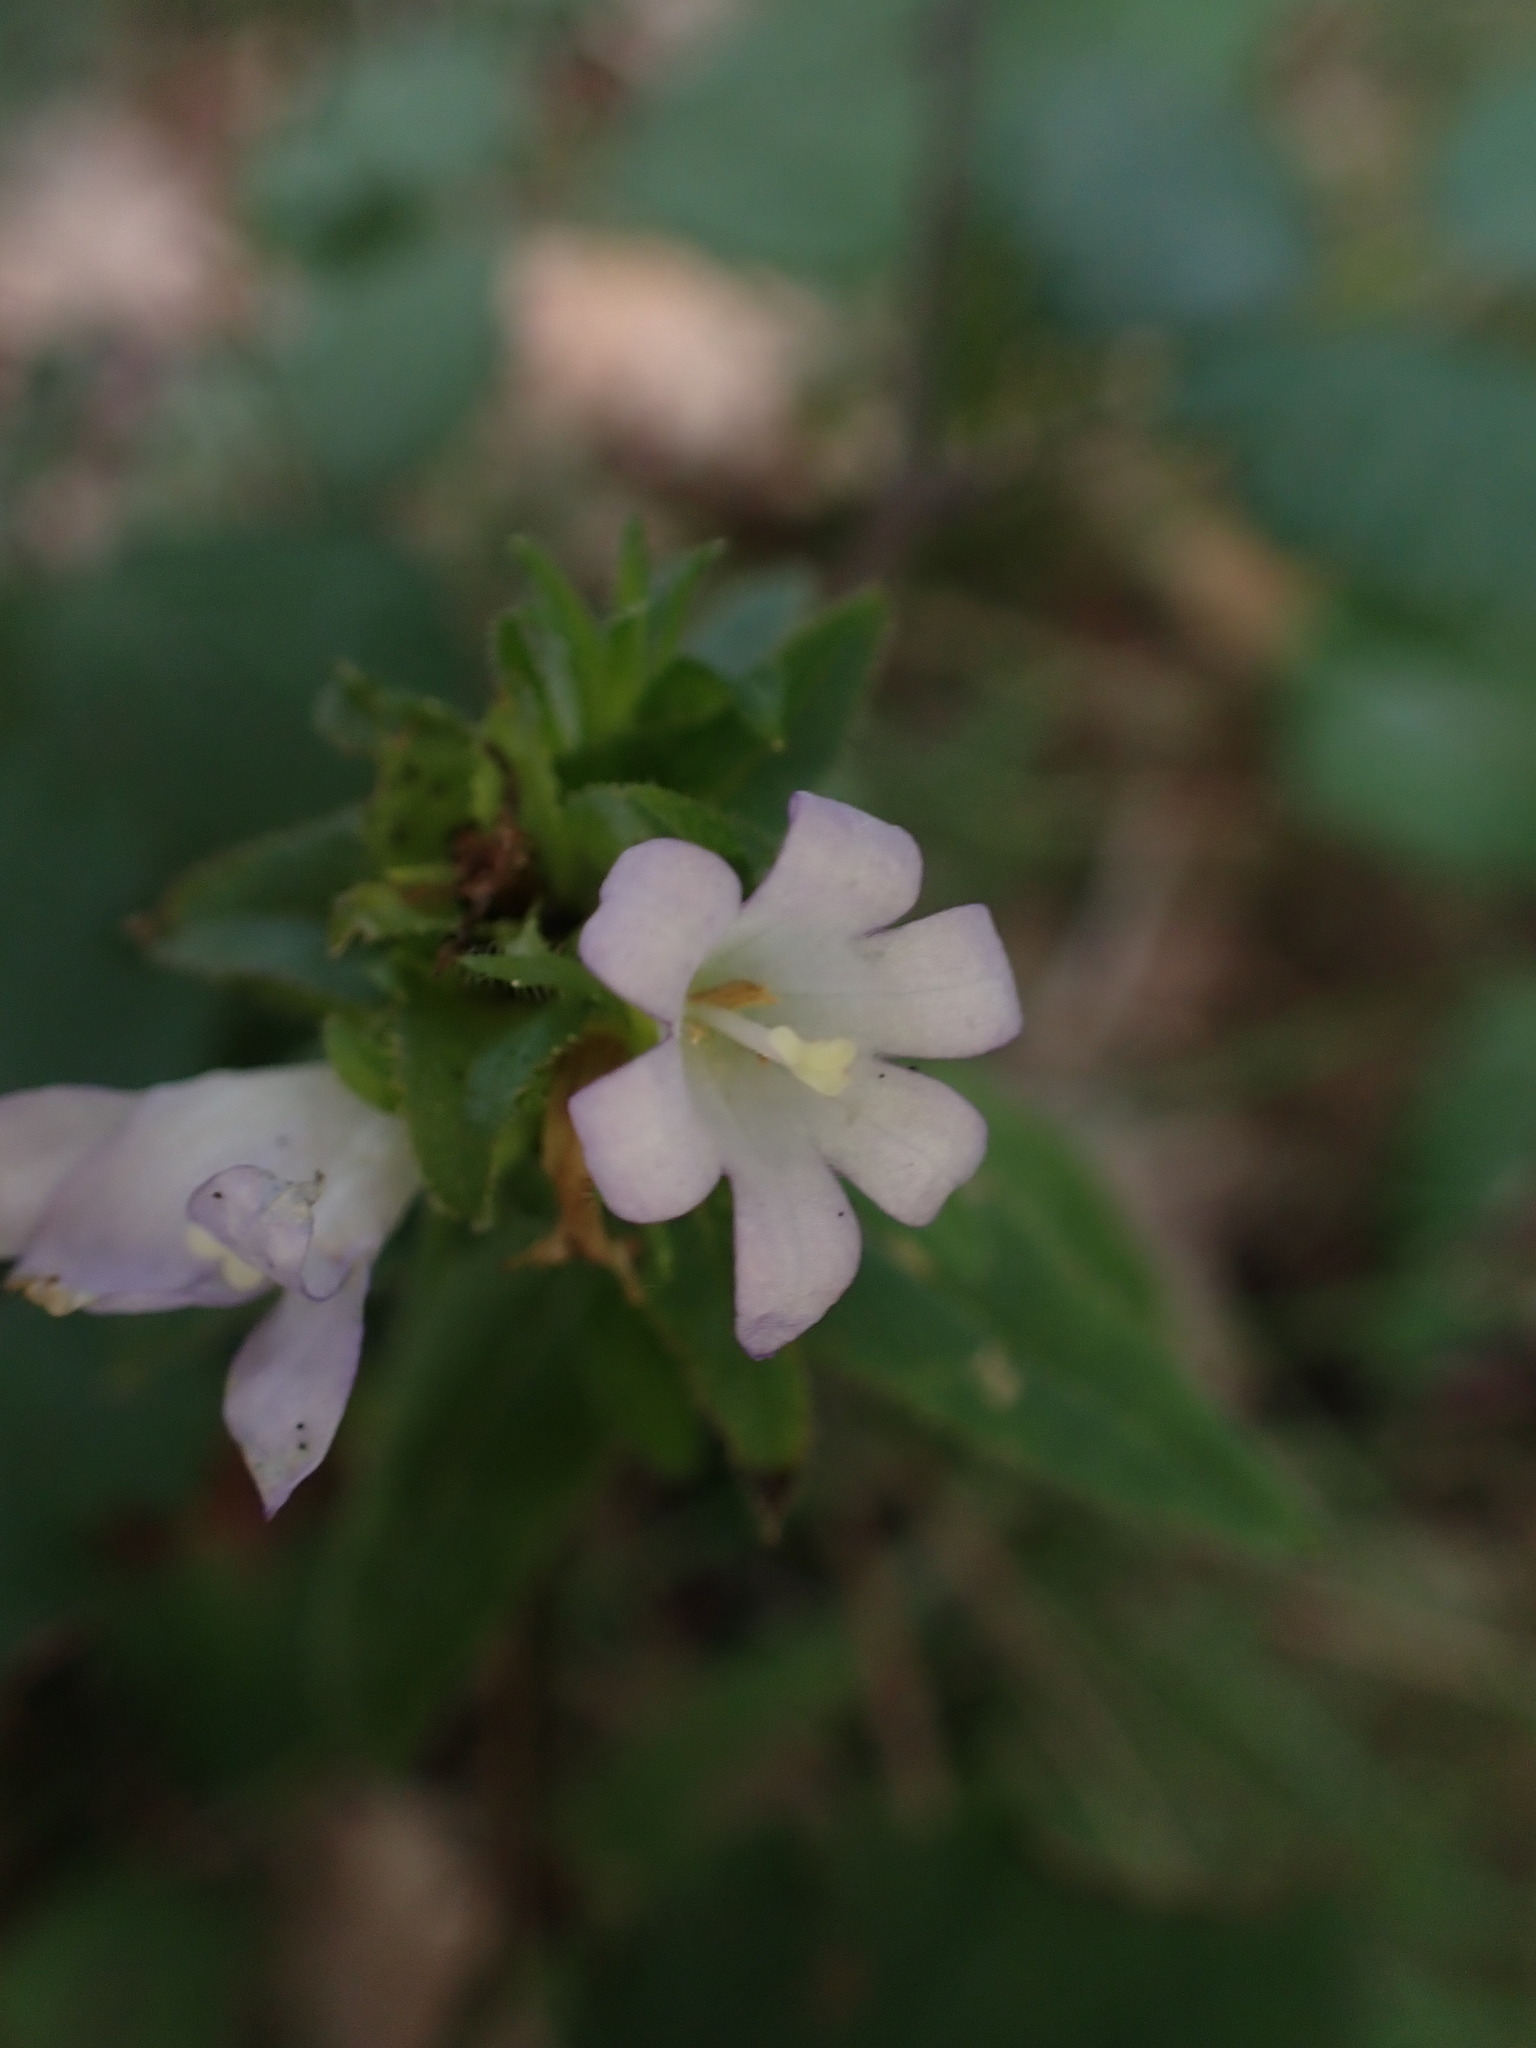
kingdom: Plantae
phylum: Tracheophyta
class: Magnoliopsida
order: Asterales
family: Campanulaceae
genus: Campanula
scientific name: Campanula glomerata
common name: Clustered bellflower
